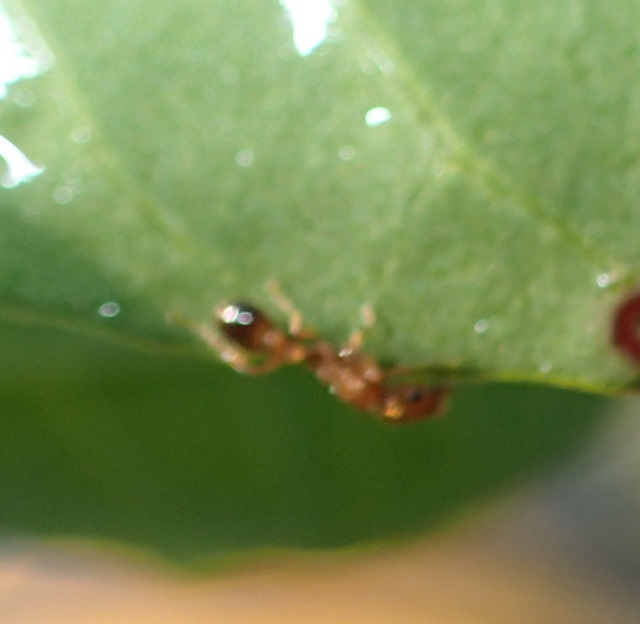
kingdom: Animalia
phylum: Arthropoda
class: Insecta
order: Hymenoptera
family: Formicidae
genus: Tetramorium
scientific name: Tetramorium bicarinatum
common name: Guinea ant
